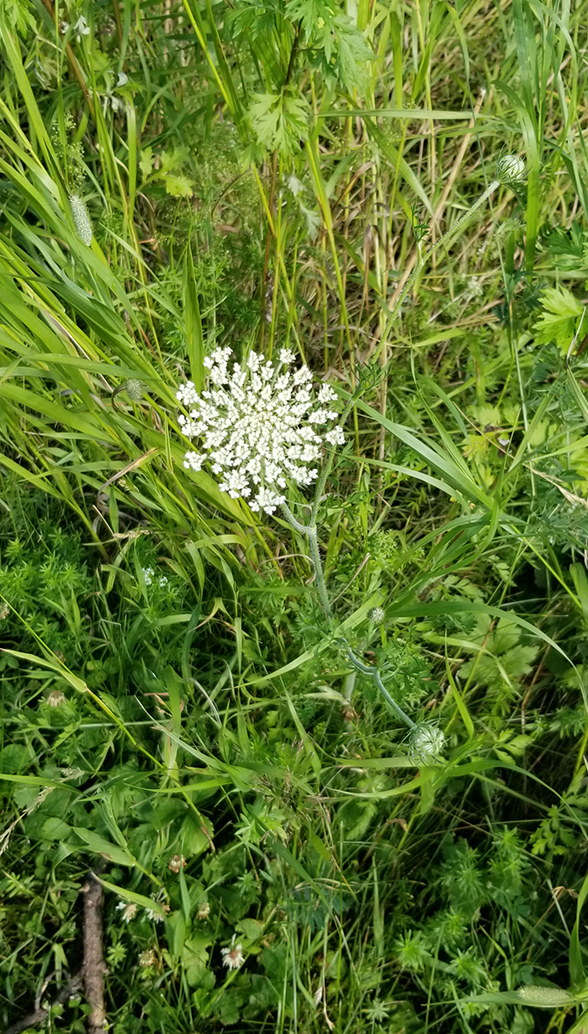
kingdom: Plantae
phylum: Tracheophyta
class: Magnoliopsida
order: Apiales
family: Apiaceae
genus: Daucus
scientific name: Daucus carota
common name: Wild carrot
